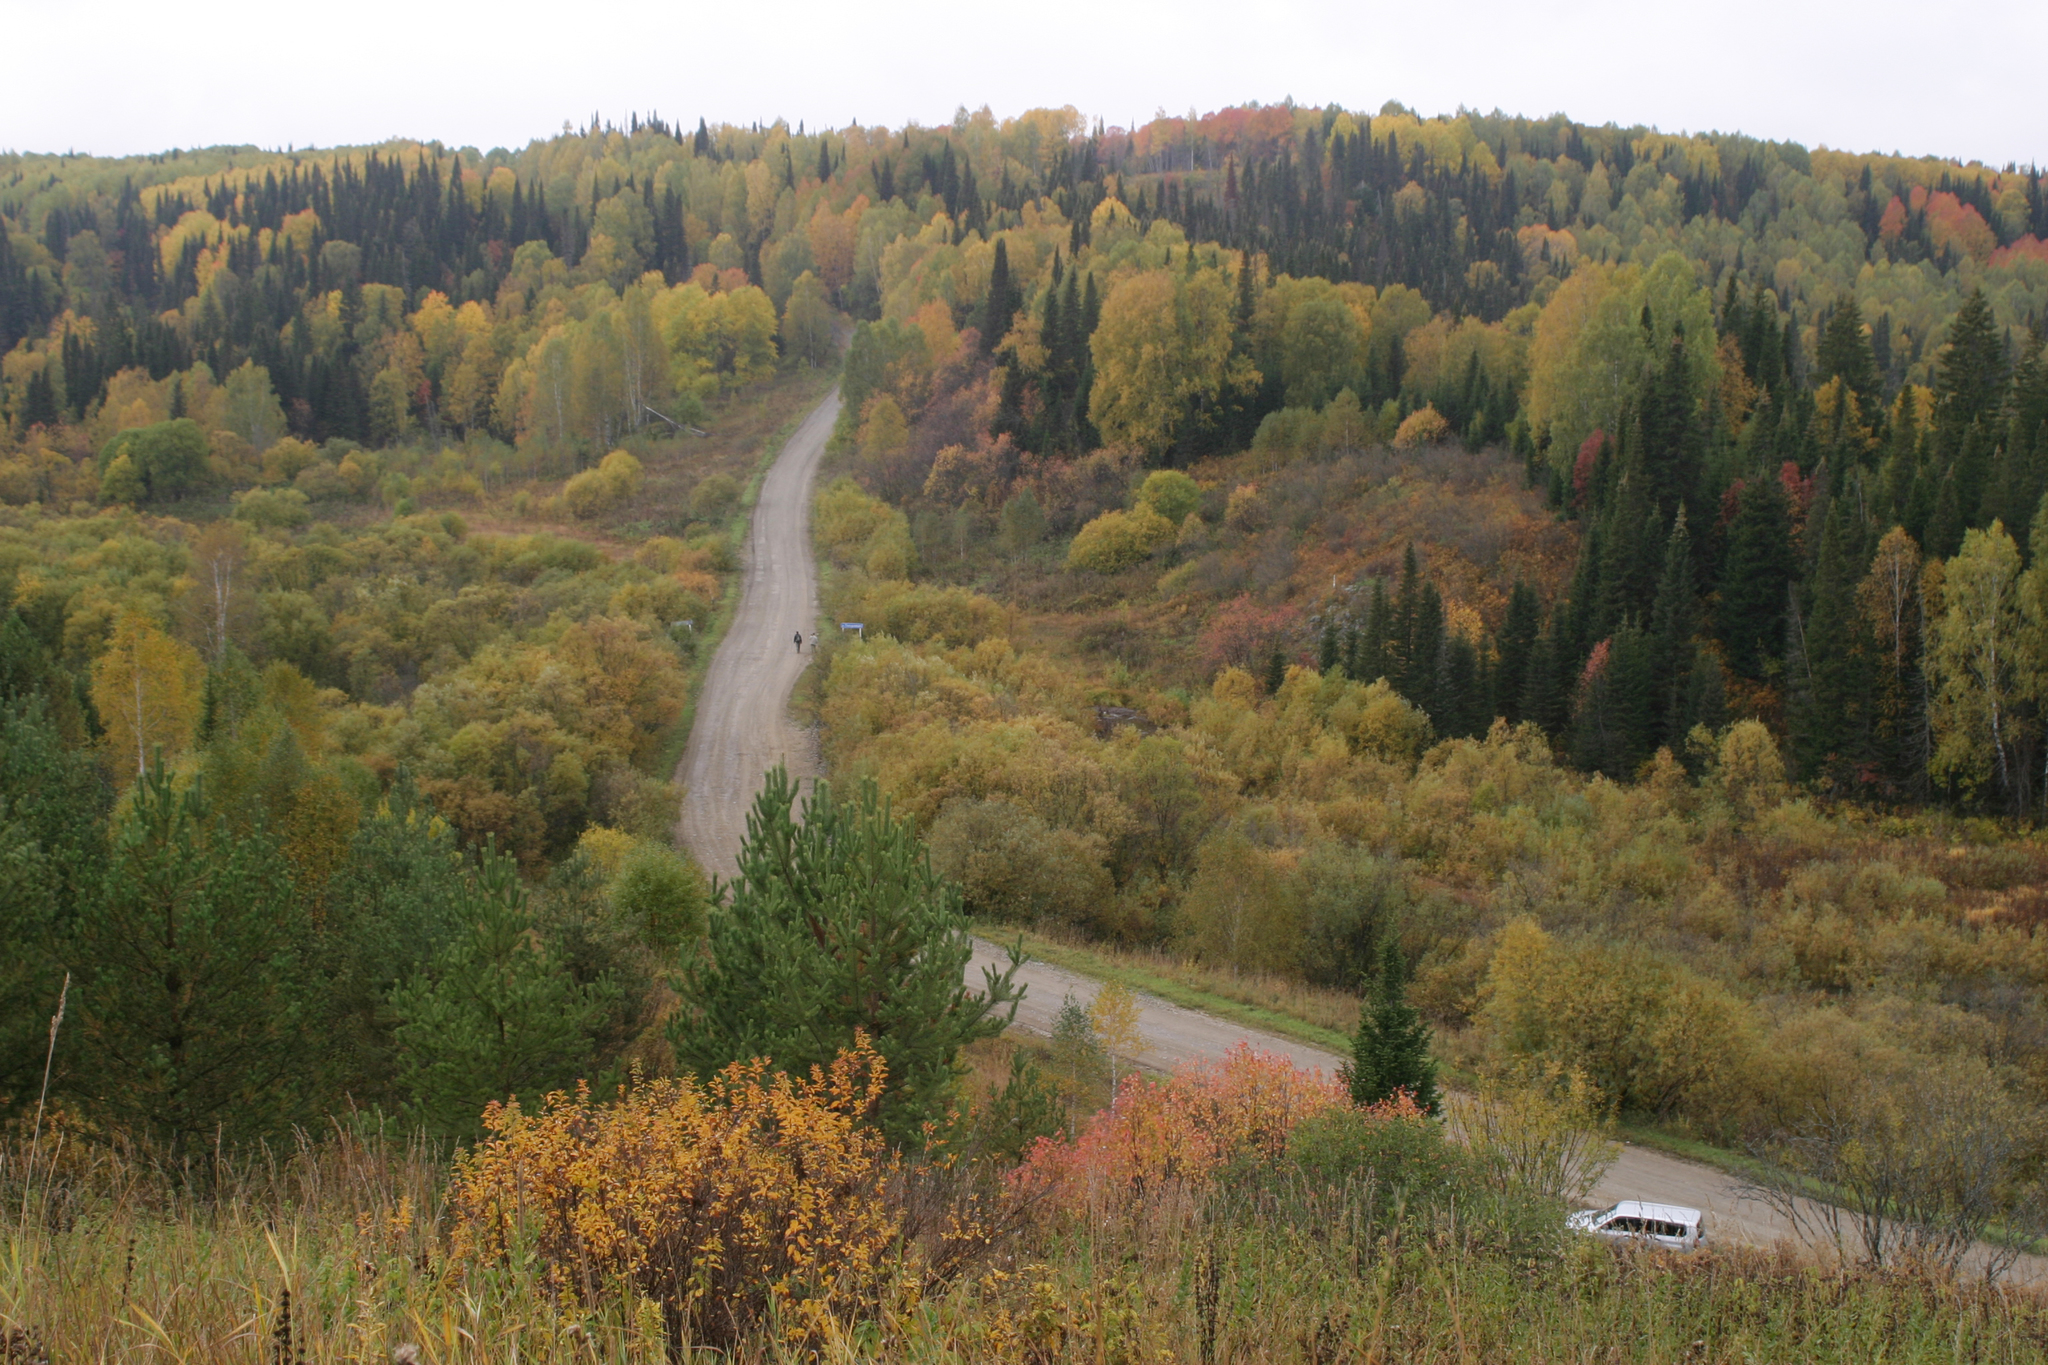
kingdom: Plantae
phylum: Tracheophyta
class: Pinopsida
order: Pinales
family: Pinaceae
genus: Abies
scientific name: Abies sibirica
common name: Siberian fir
